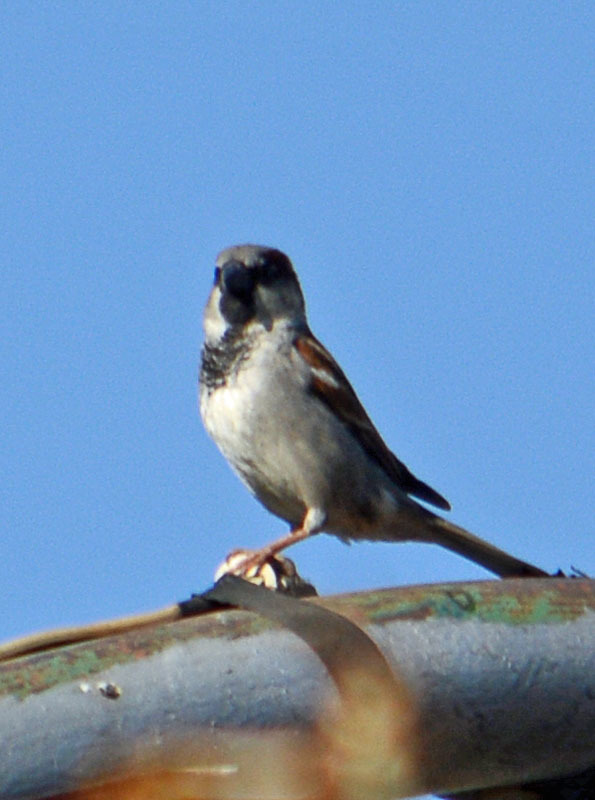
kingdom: Animalia
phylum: Chordata
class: Aves
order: Passeriformes
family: Passeridae
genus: Passer
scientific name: Passer domesticus
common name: House sparrow
